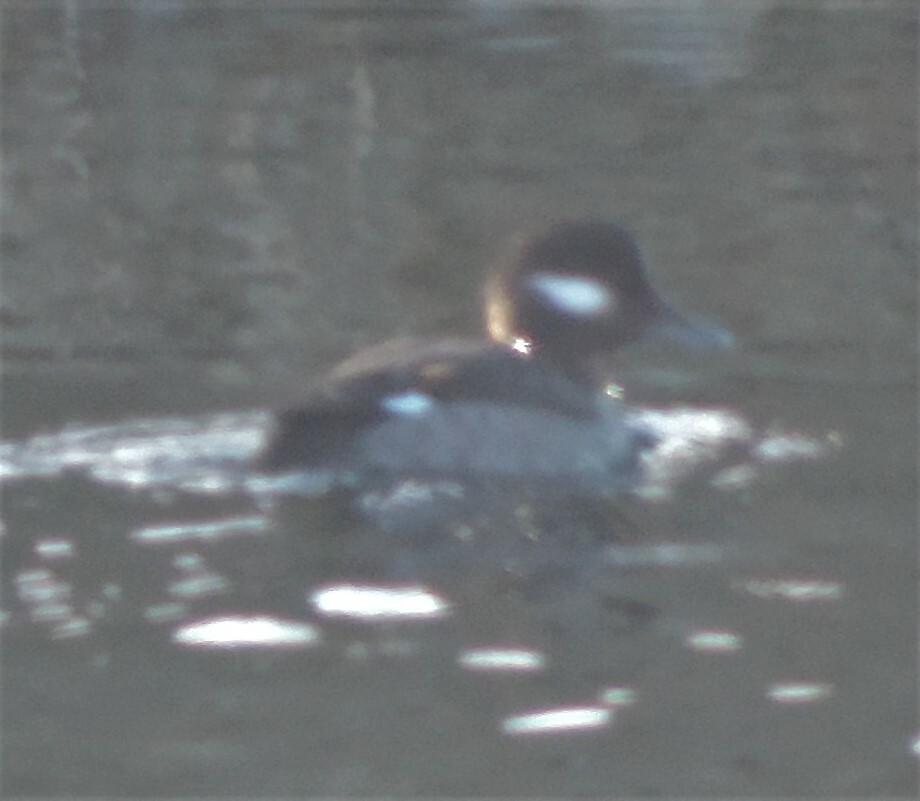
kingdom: Animalia
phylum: Chordata
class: Aves
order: Anseriformes
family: Anatidae
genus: Bucephala
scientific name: Bucephala albeola
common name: Bufflehead
